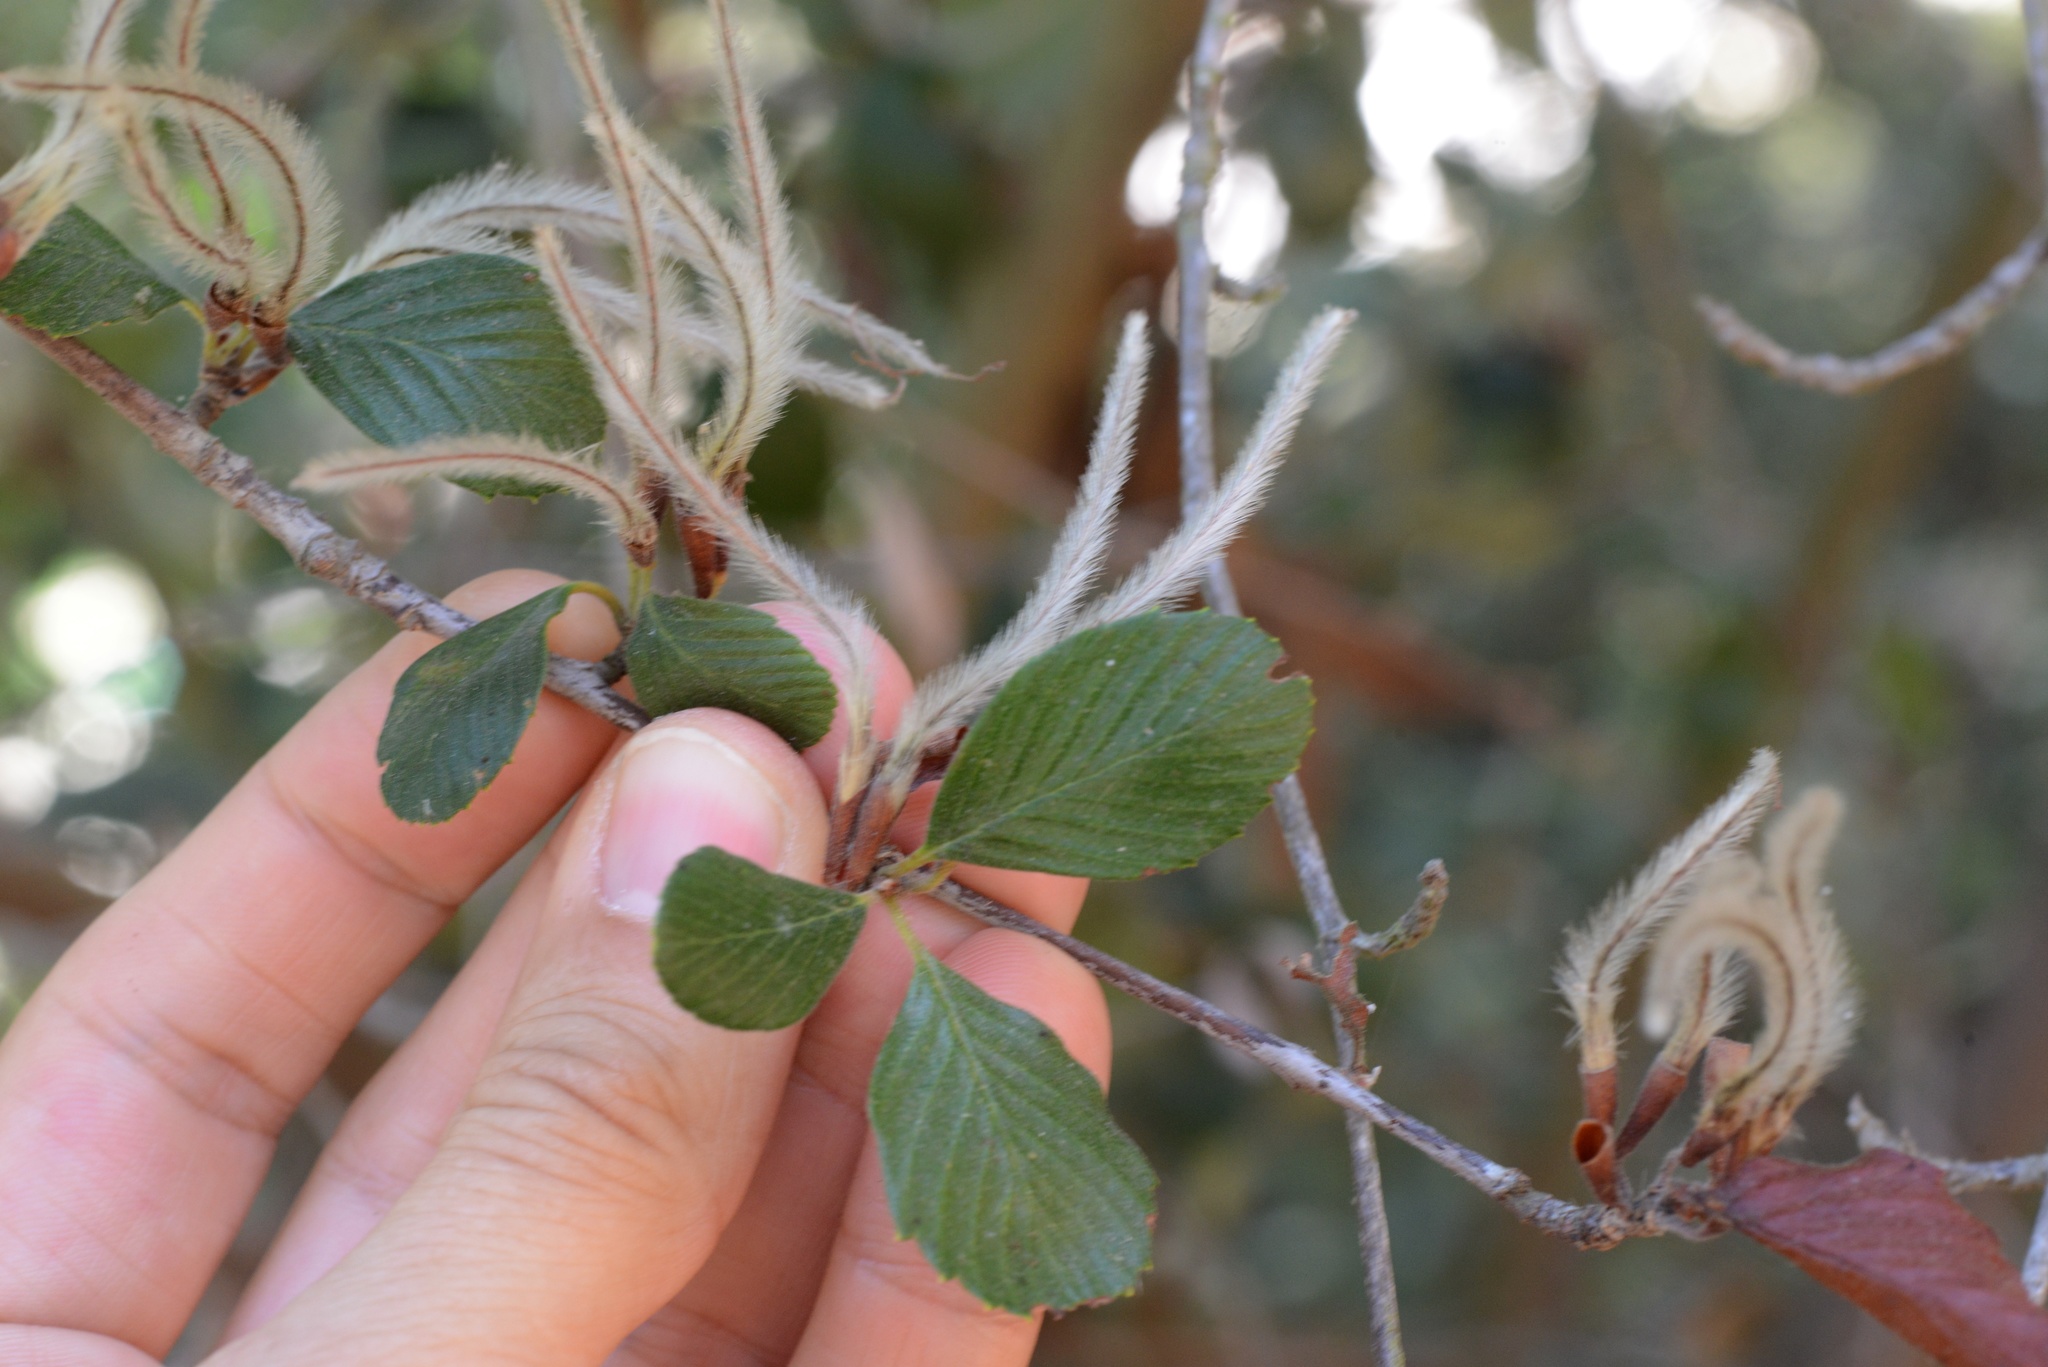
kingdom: Plantae
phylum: Tracheophyta
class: Magnoliopsida
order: Rosales
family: Rosaceae
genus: Cercocarpus
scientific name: Cercocarpus betuloides
